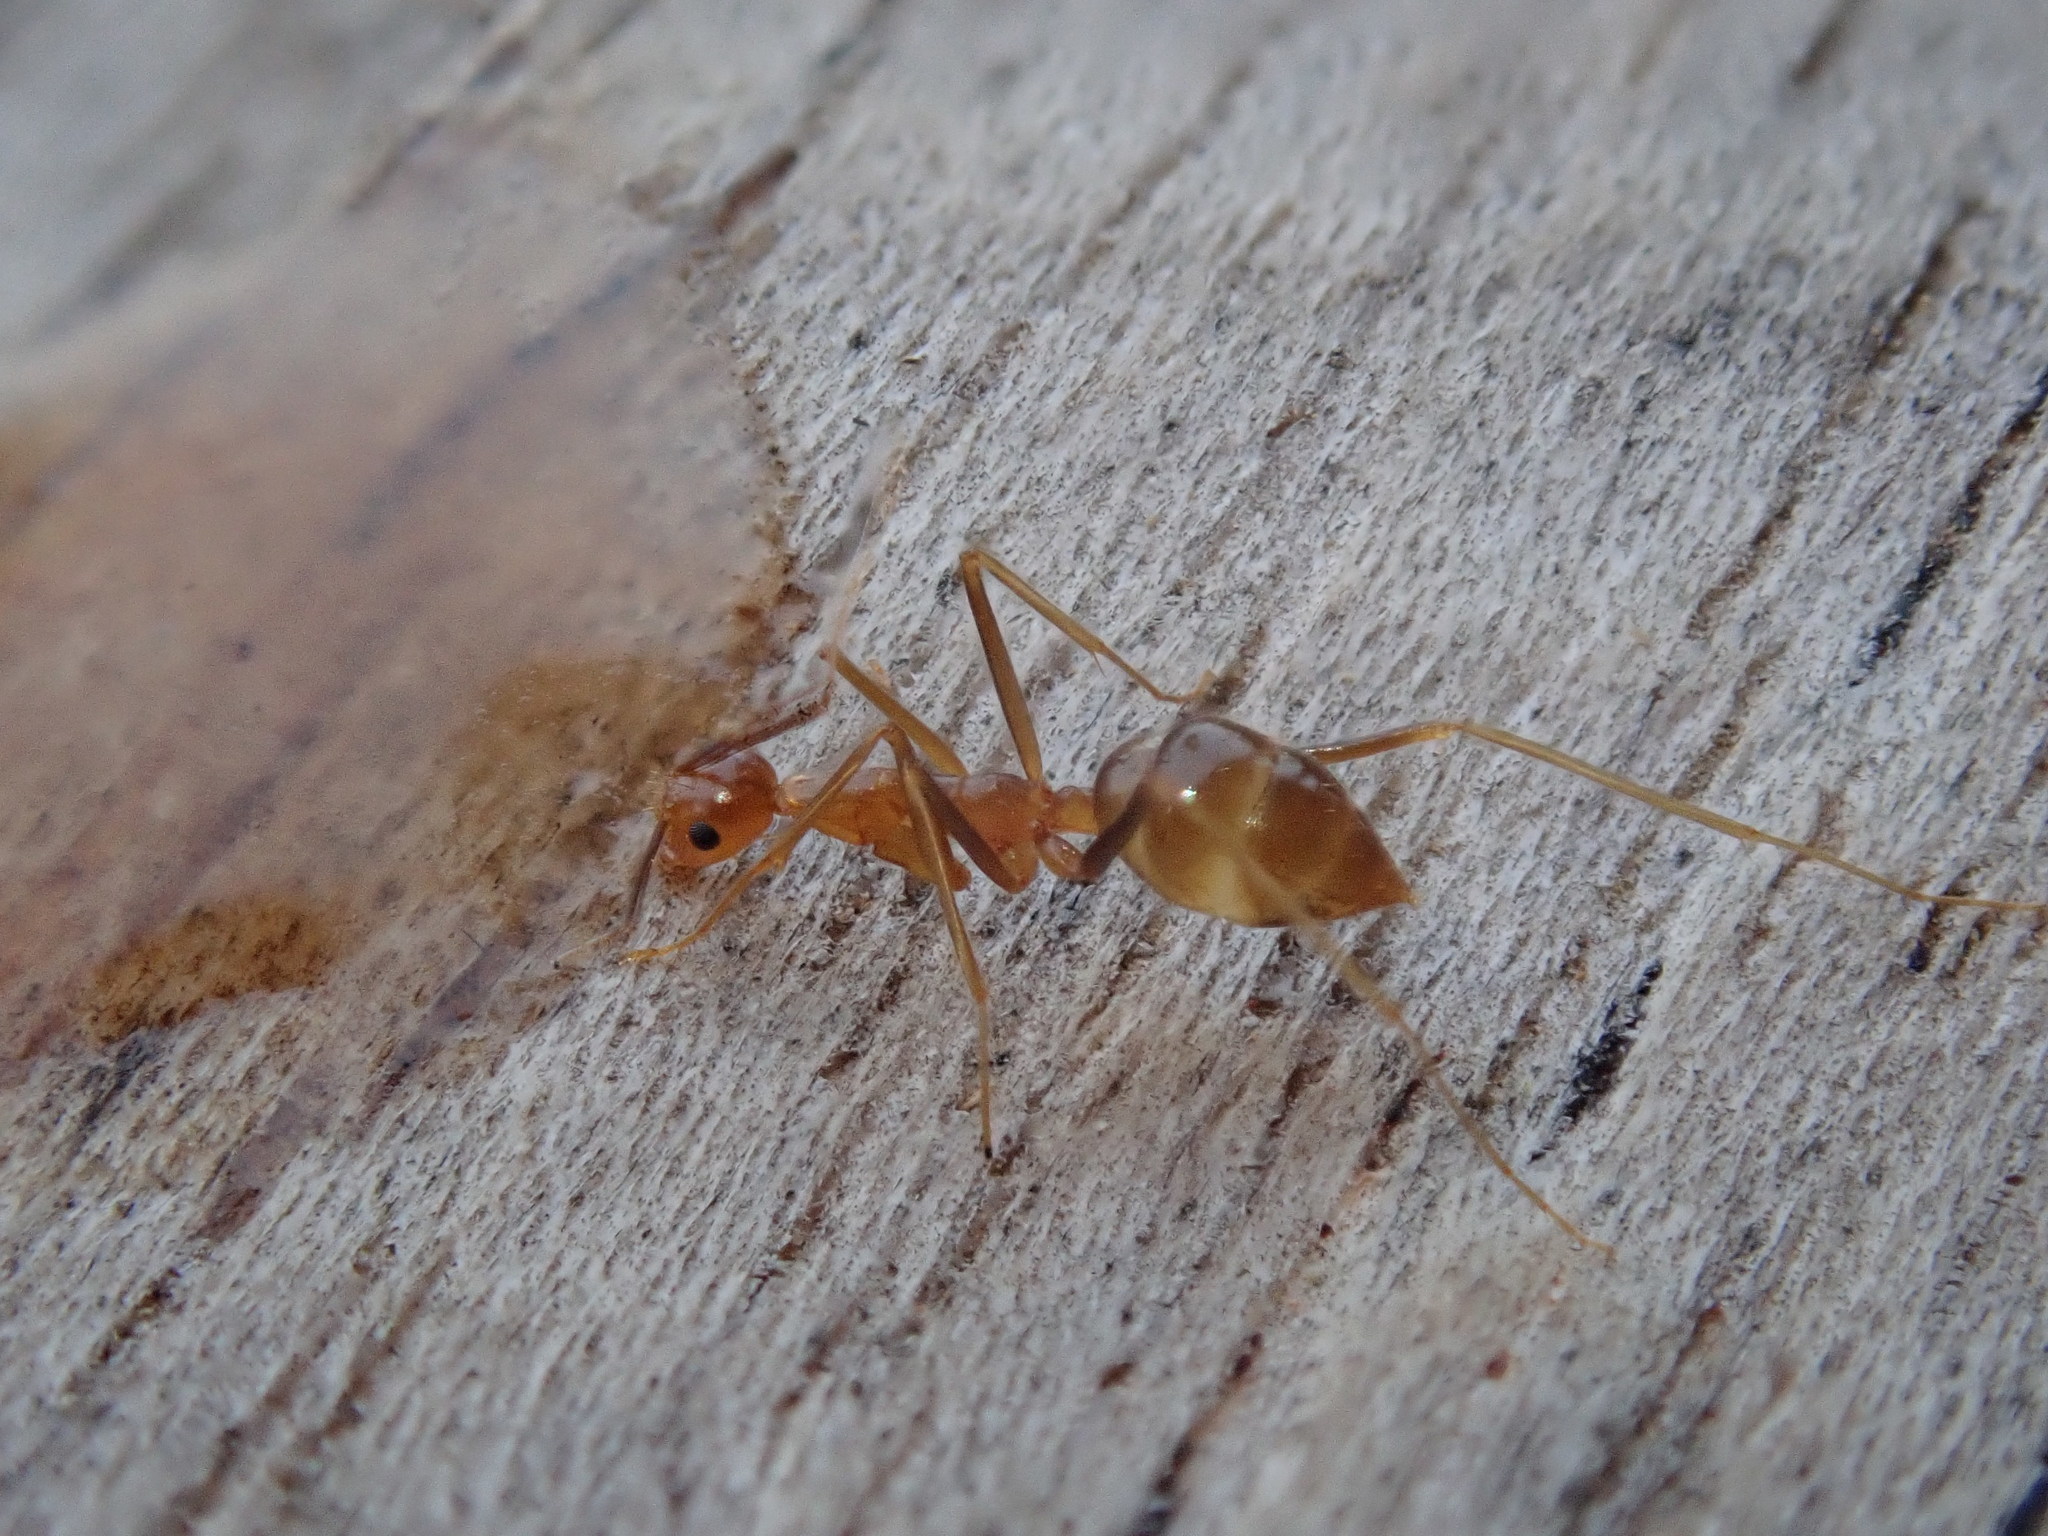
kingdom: Animalia
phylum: Arthropoda
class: Insecta
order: Hymenoptera
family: Formicidae
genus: Anoplolepis
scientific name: Anoplolepis gracilipes
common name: Ant
